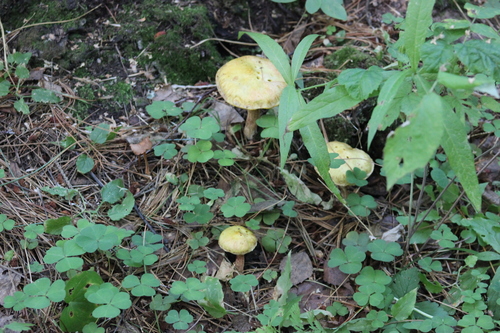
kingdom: Fungi
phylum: Basidiomycota
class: Agaricomycetes
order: Boletales
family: Suillaceae
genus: Suillus
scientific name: Suillus americanus
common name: Chicken fat mushroom
